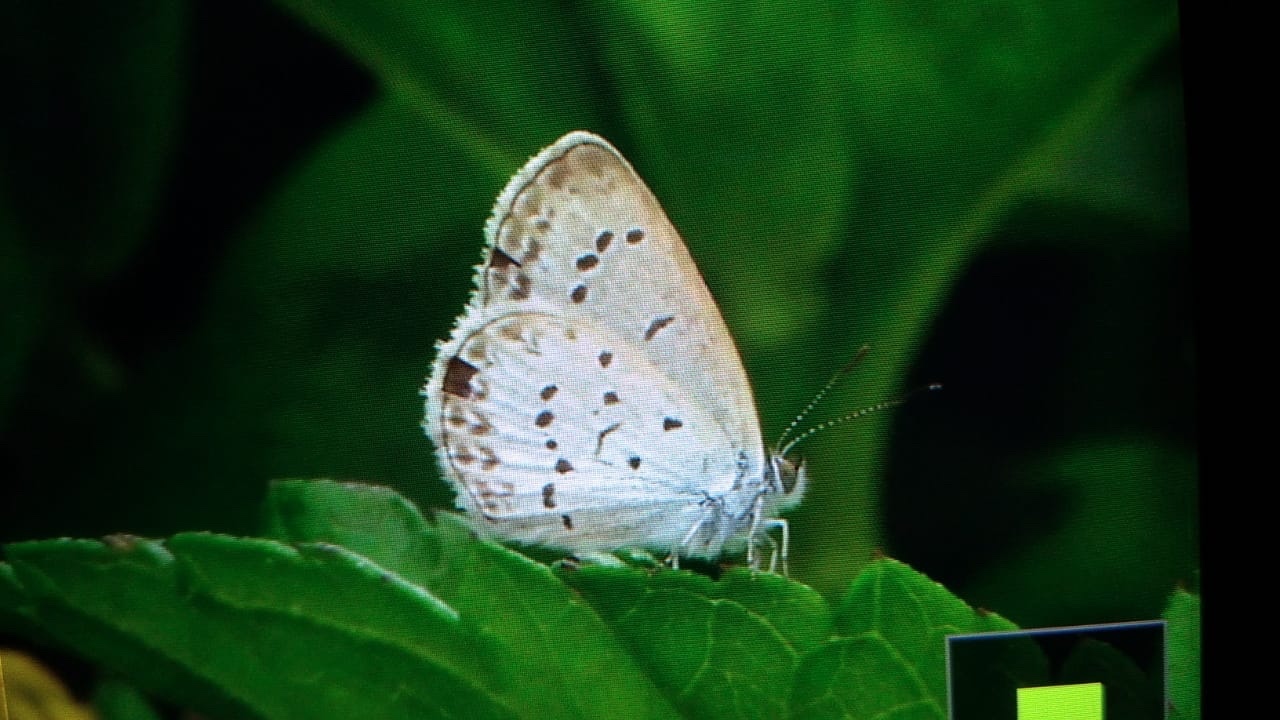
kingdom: Animalia
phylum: Arthropoda
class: Insecta
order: Lepidoptera
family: Lycaenidae
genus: Zizina
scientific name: Zizina otis
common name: Lesser grass blue
